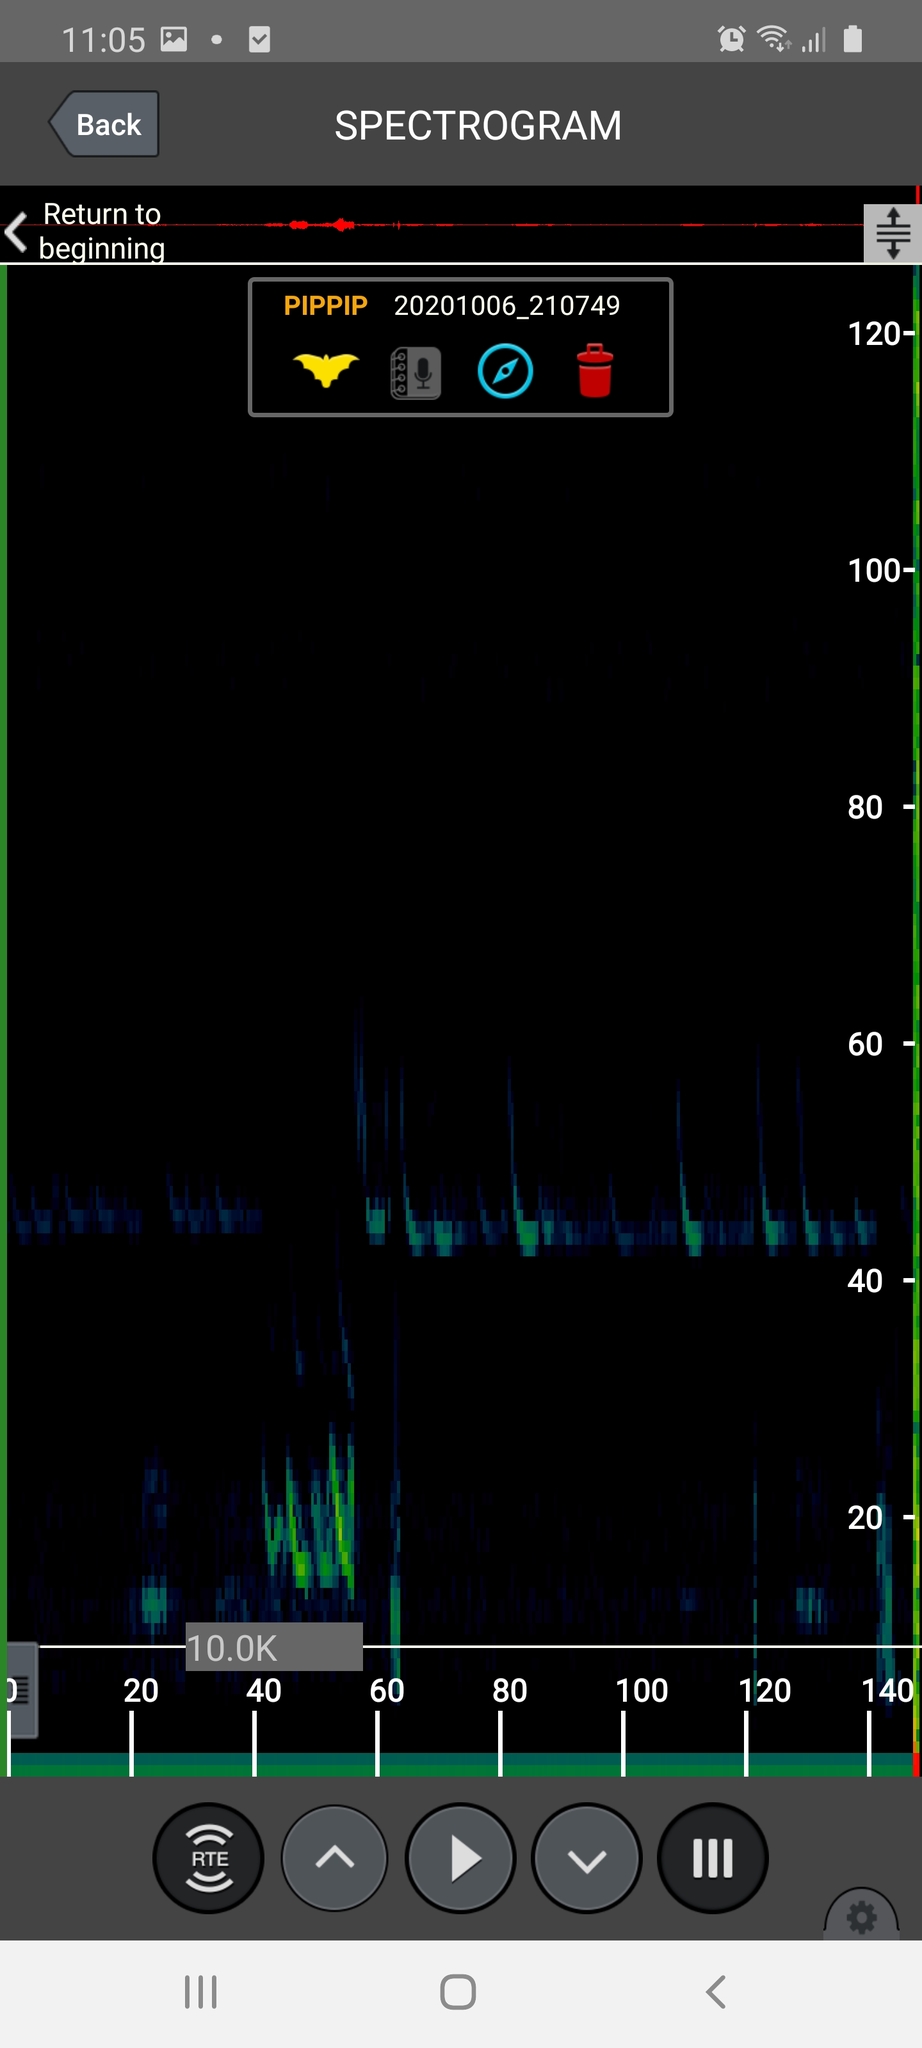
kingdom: Animalia
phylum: Chordata
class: Mammalia
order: Chiroptera
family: Vespertilionidae
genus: Pipistrellus
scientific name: Pipistrellus pipistrellus
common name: Common pipistrelle
